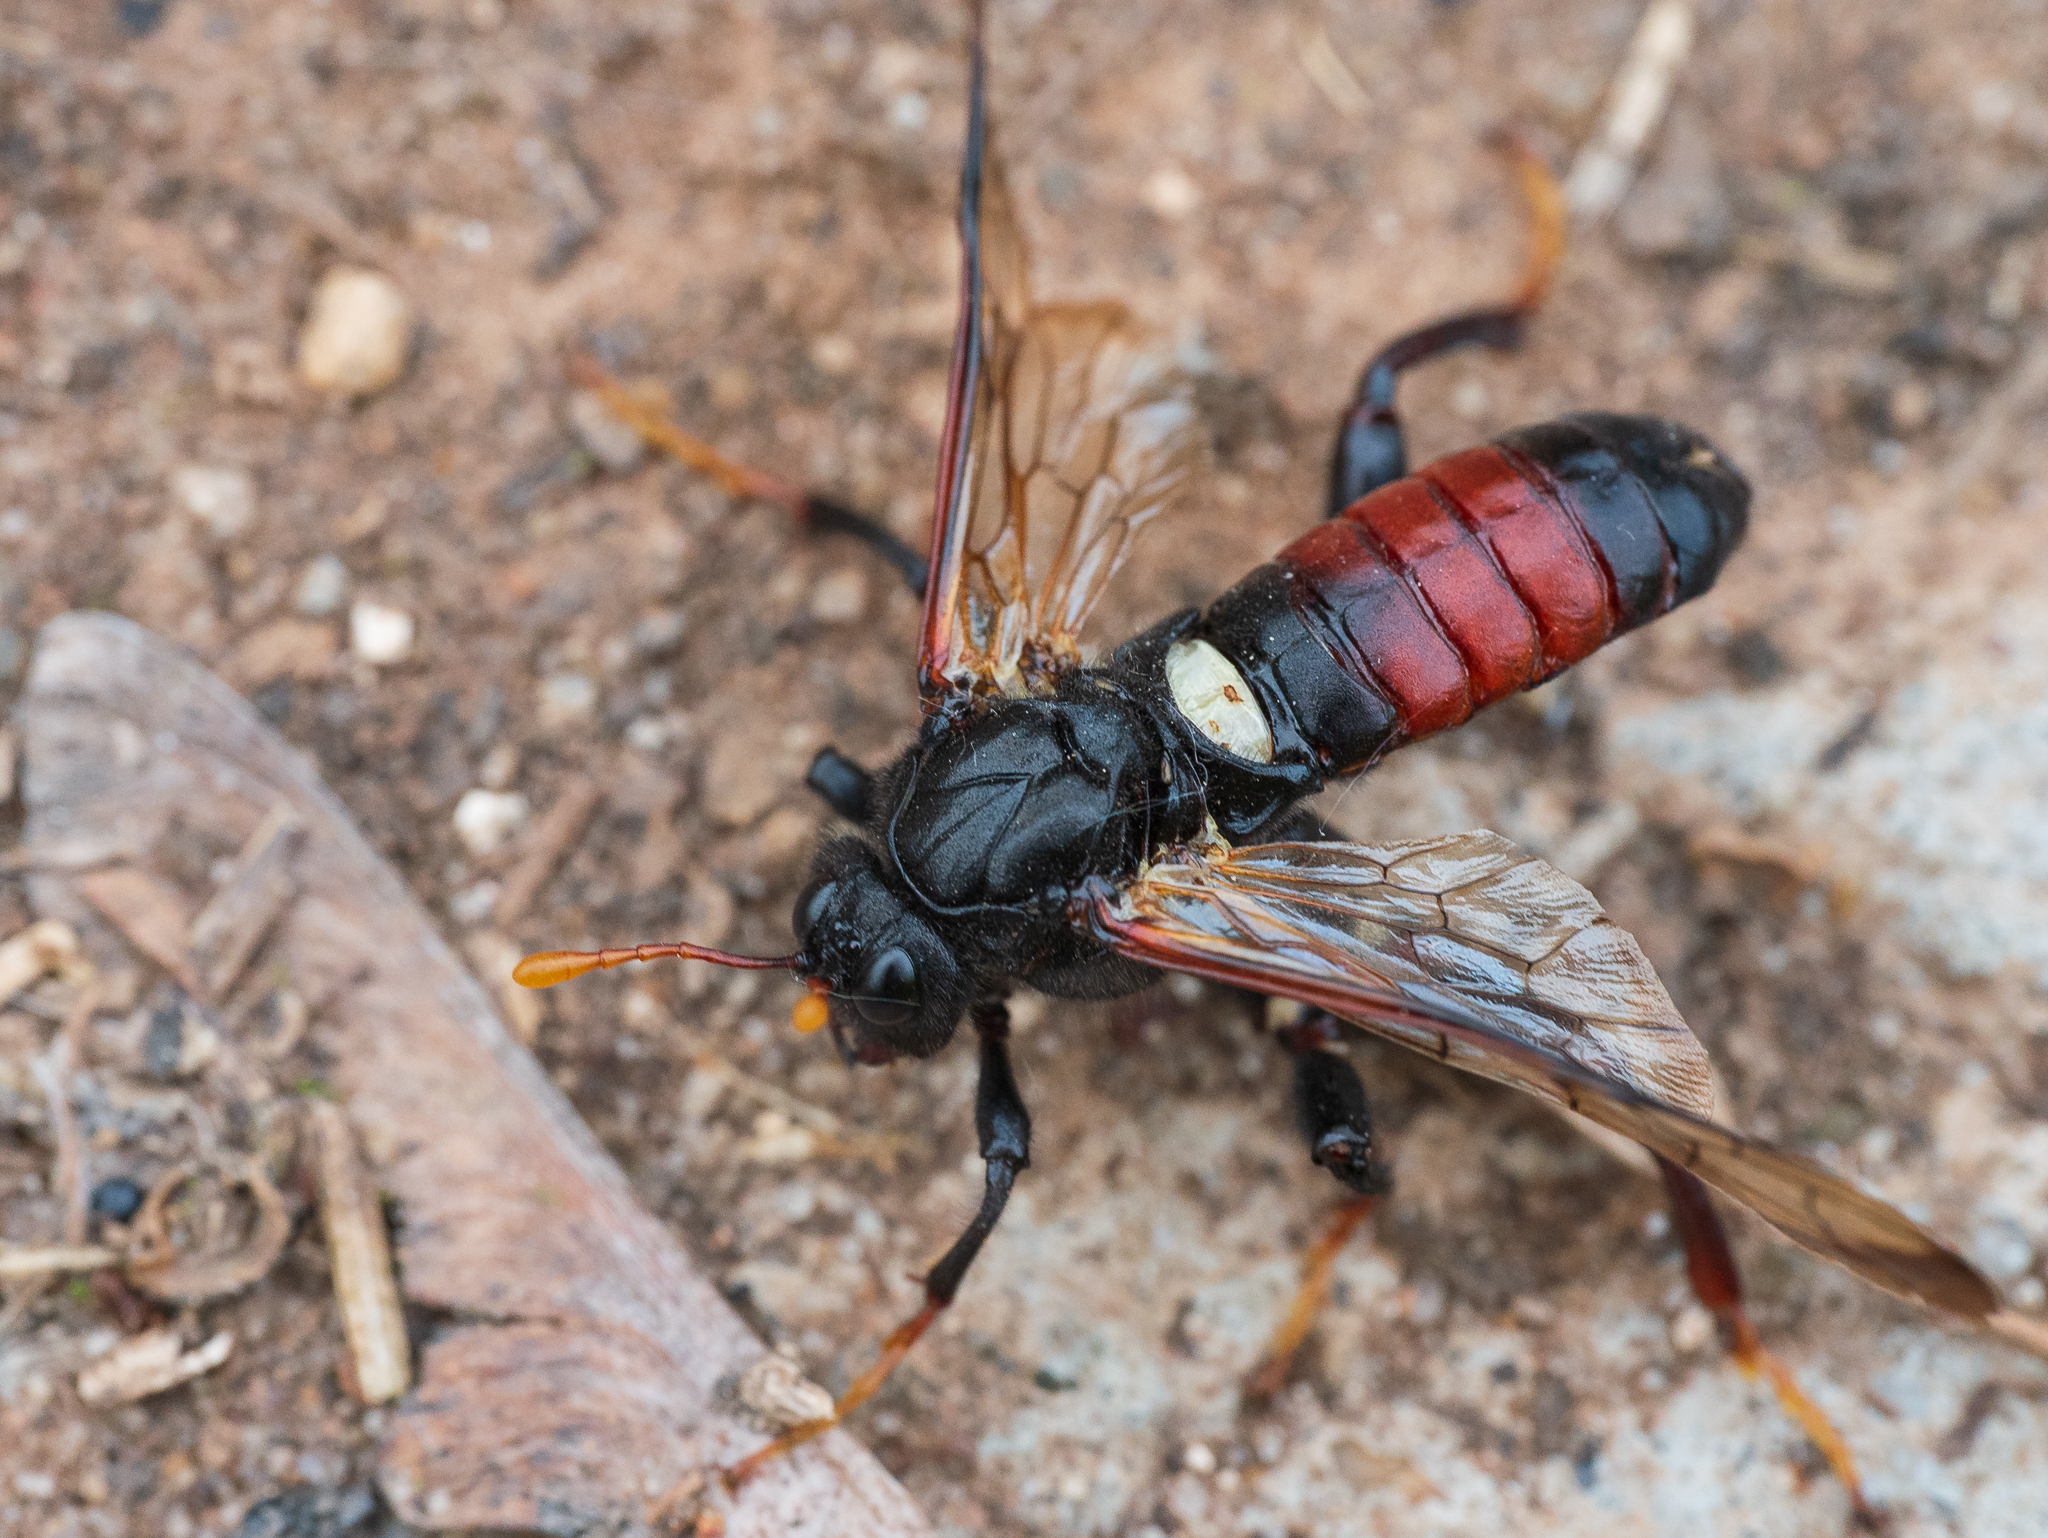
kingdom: Animalia
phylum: Arthropoda
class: Insecta
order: Hymenoptera
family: Cimbicidae
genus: Cimbex
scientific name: Cimbex femoratus
